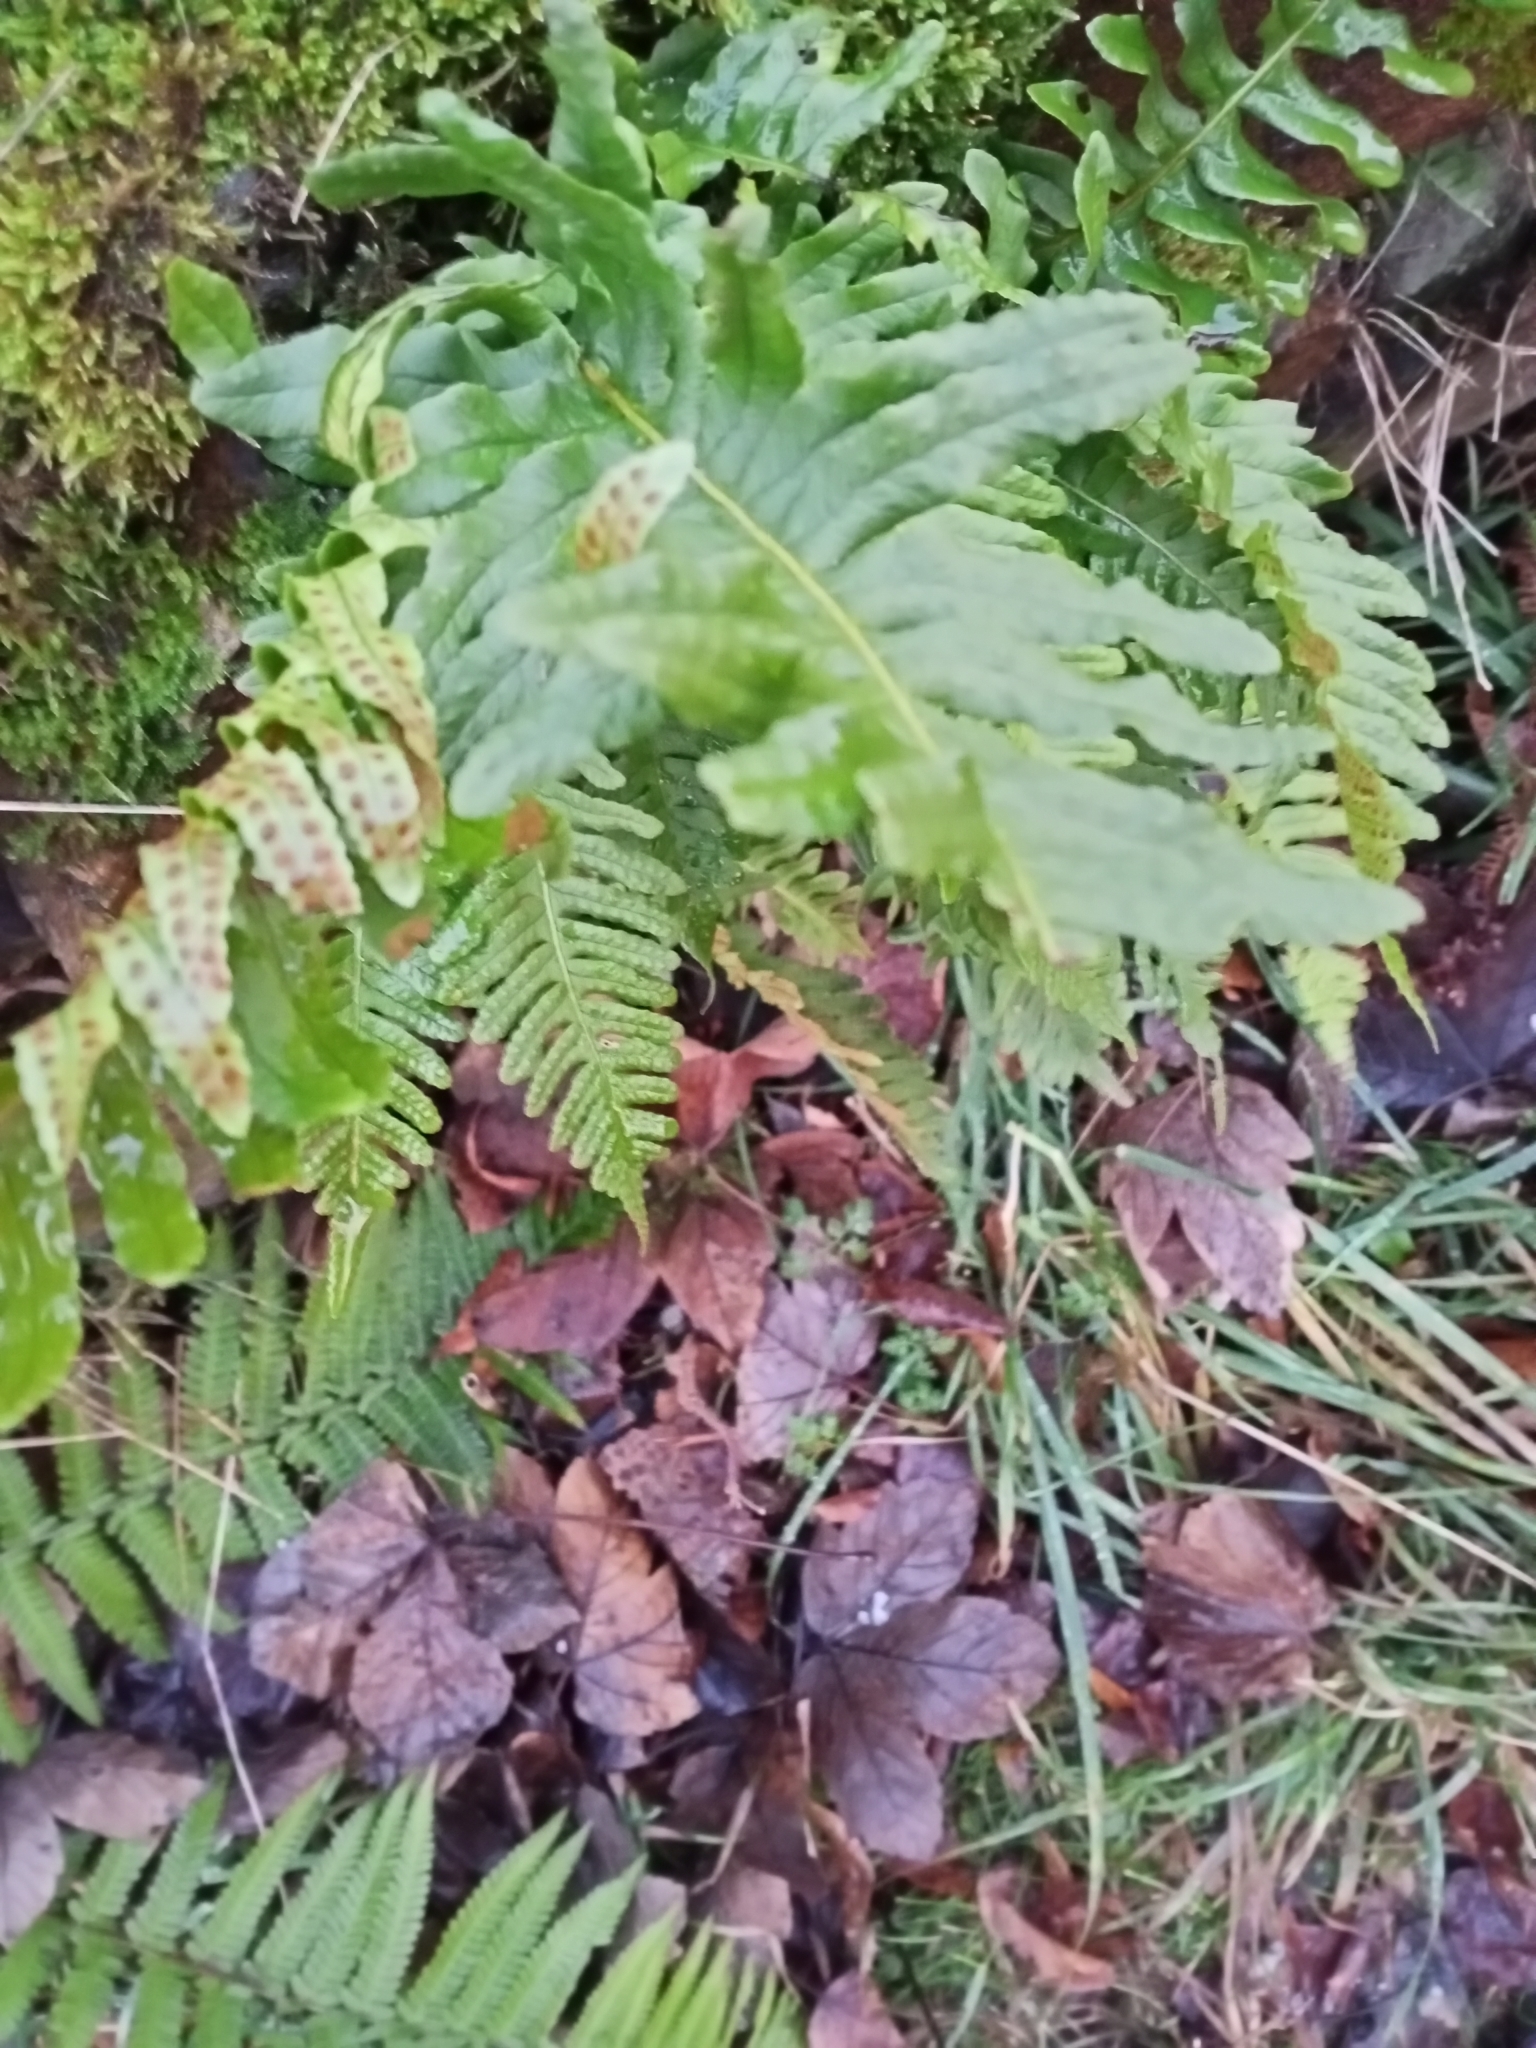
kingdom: Plantae
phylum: Tracheophyta
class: Polypodiopsida
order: Polypodiales
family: Polypodiaceae
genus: Polypodium
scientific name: Polypodium vulgare
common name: Common polypody
